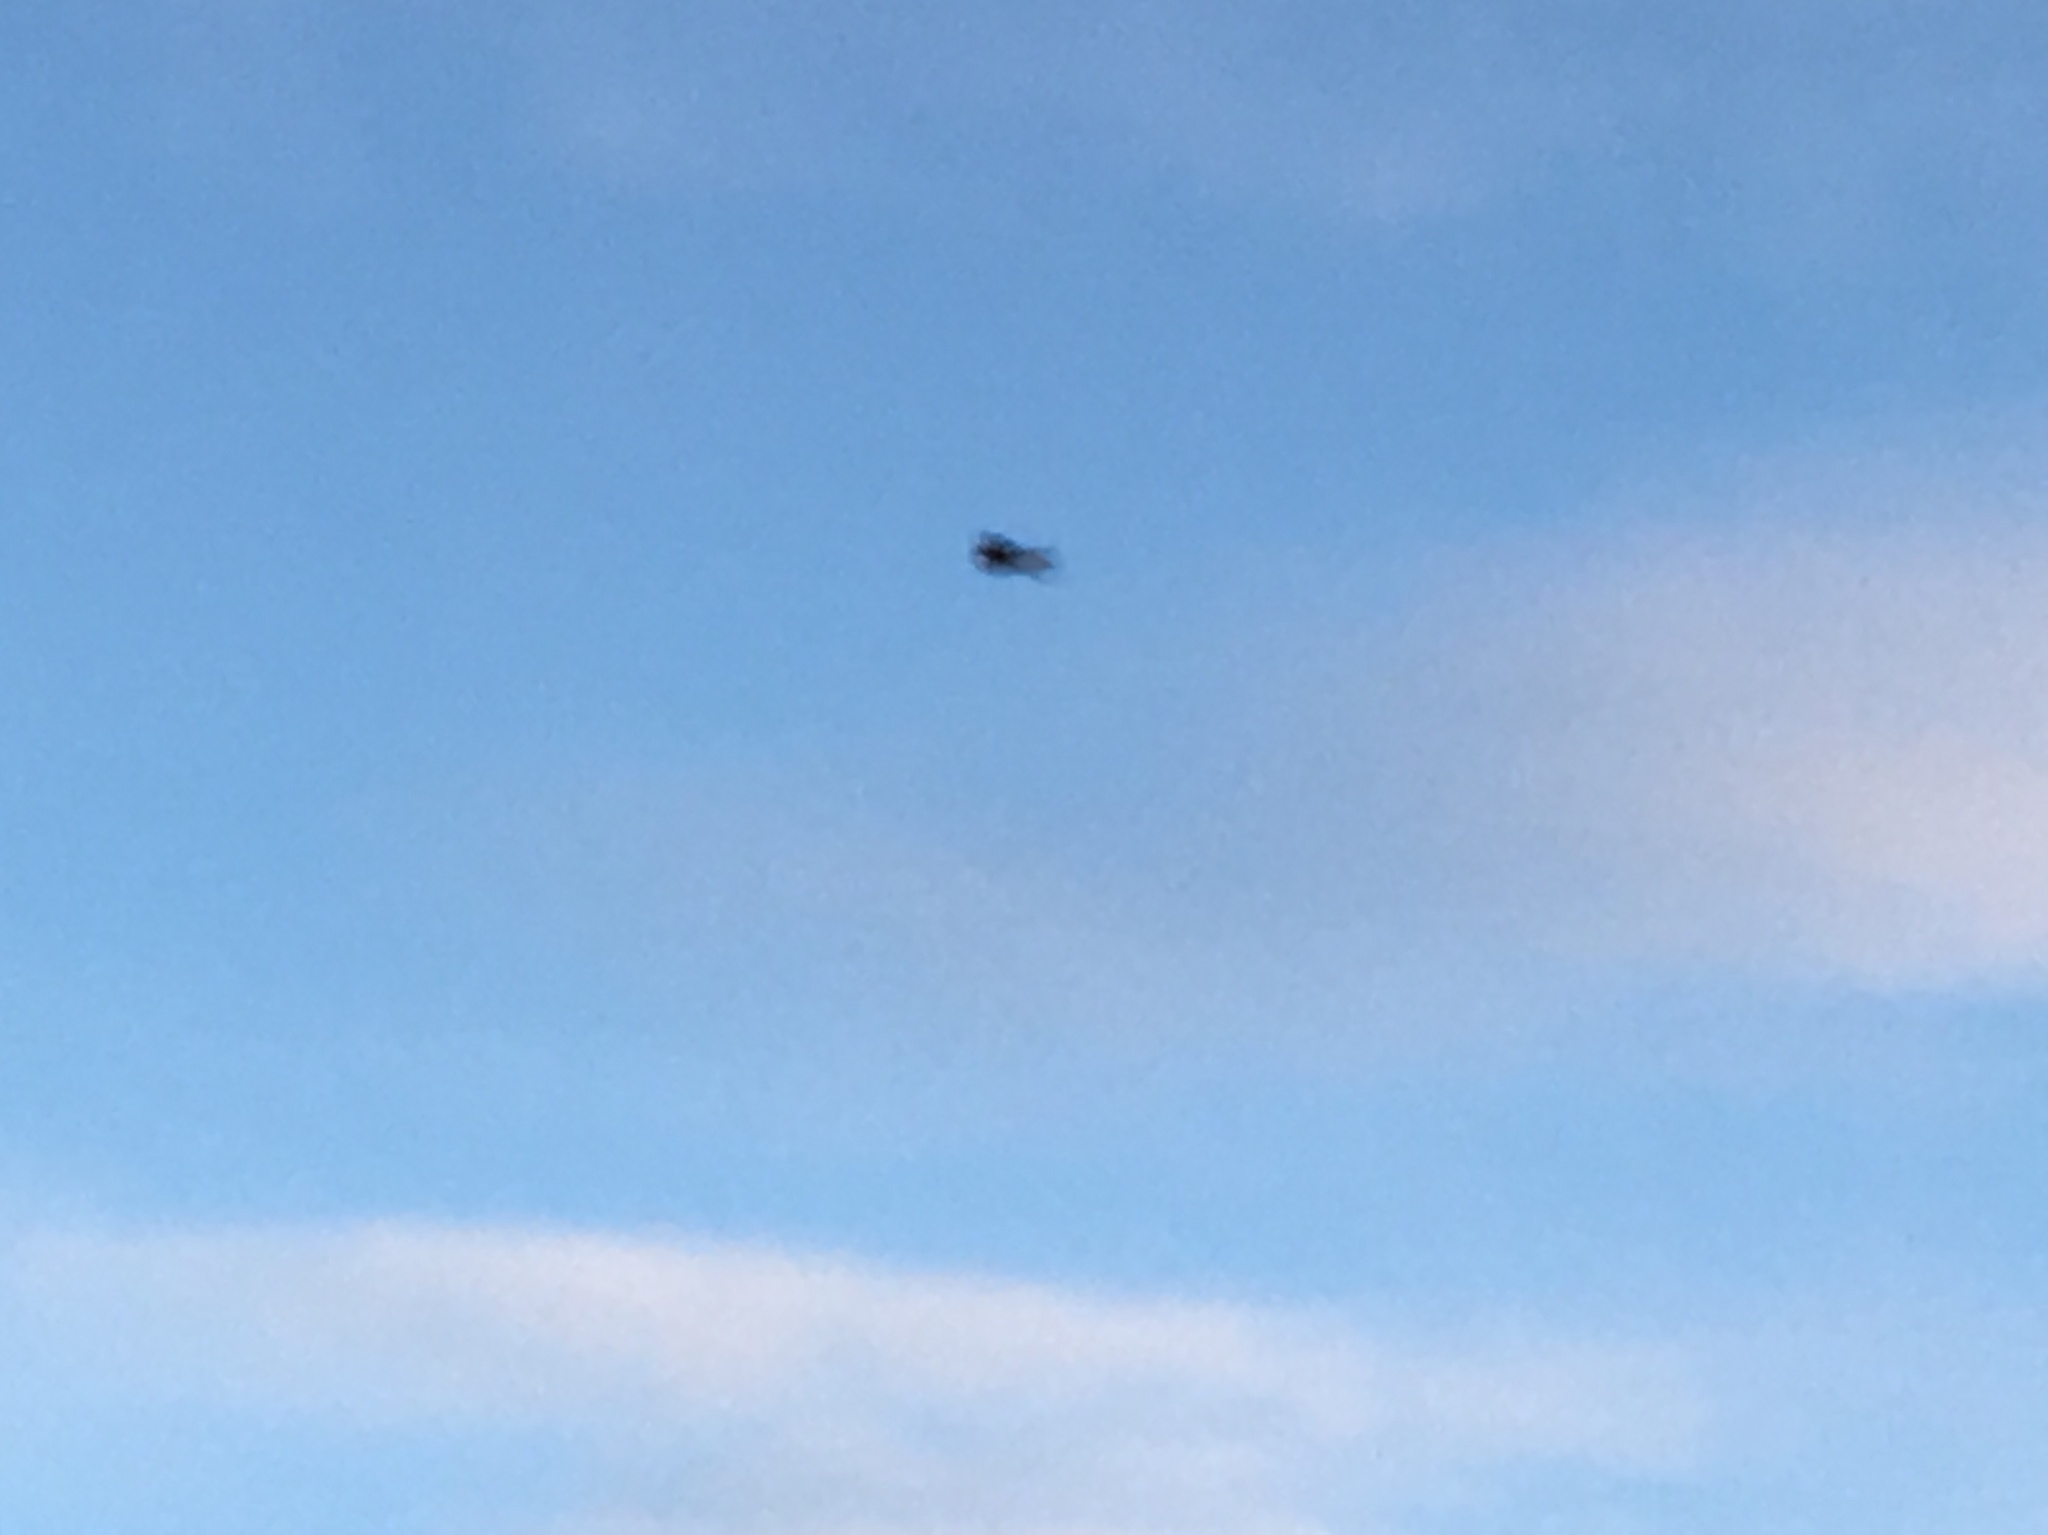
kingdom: Animalia
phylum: Chordata
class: Aves
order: Falconiformes
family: Falconidae
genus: Falco
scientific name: Falco tinnunculus
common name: Common kestrel
